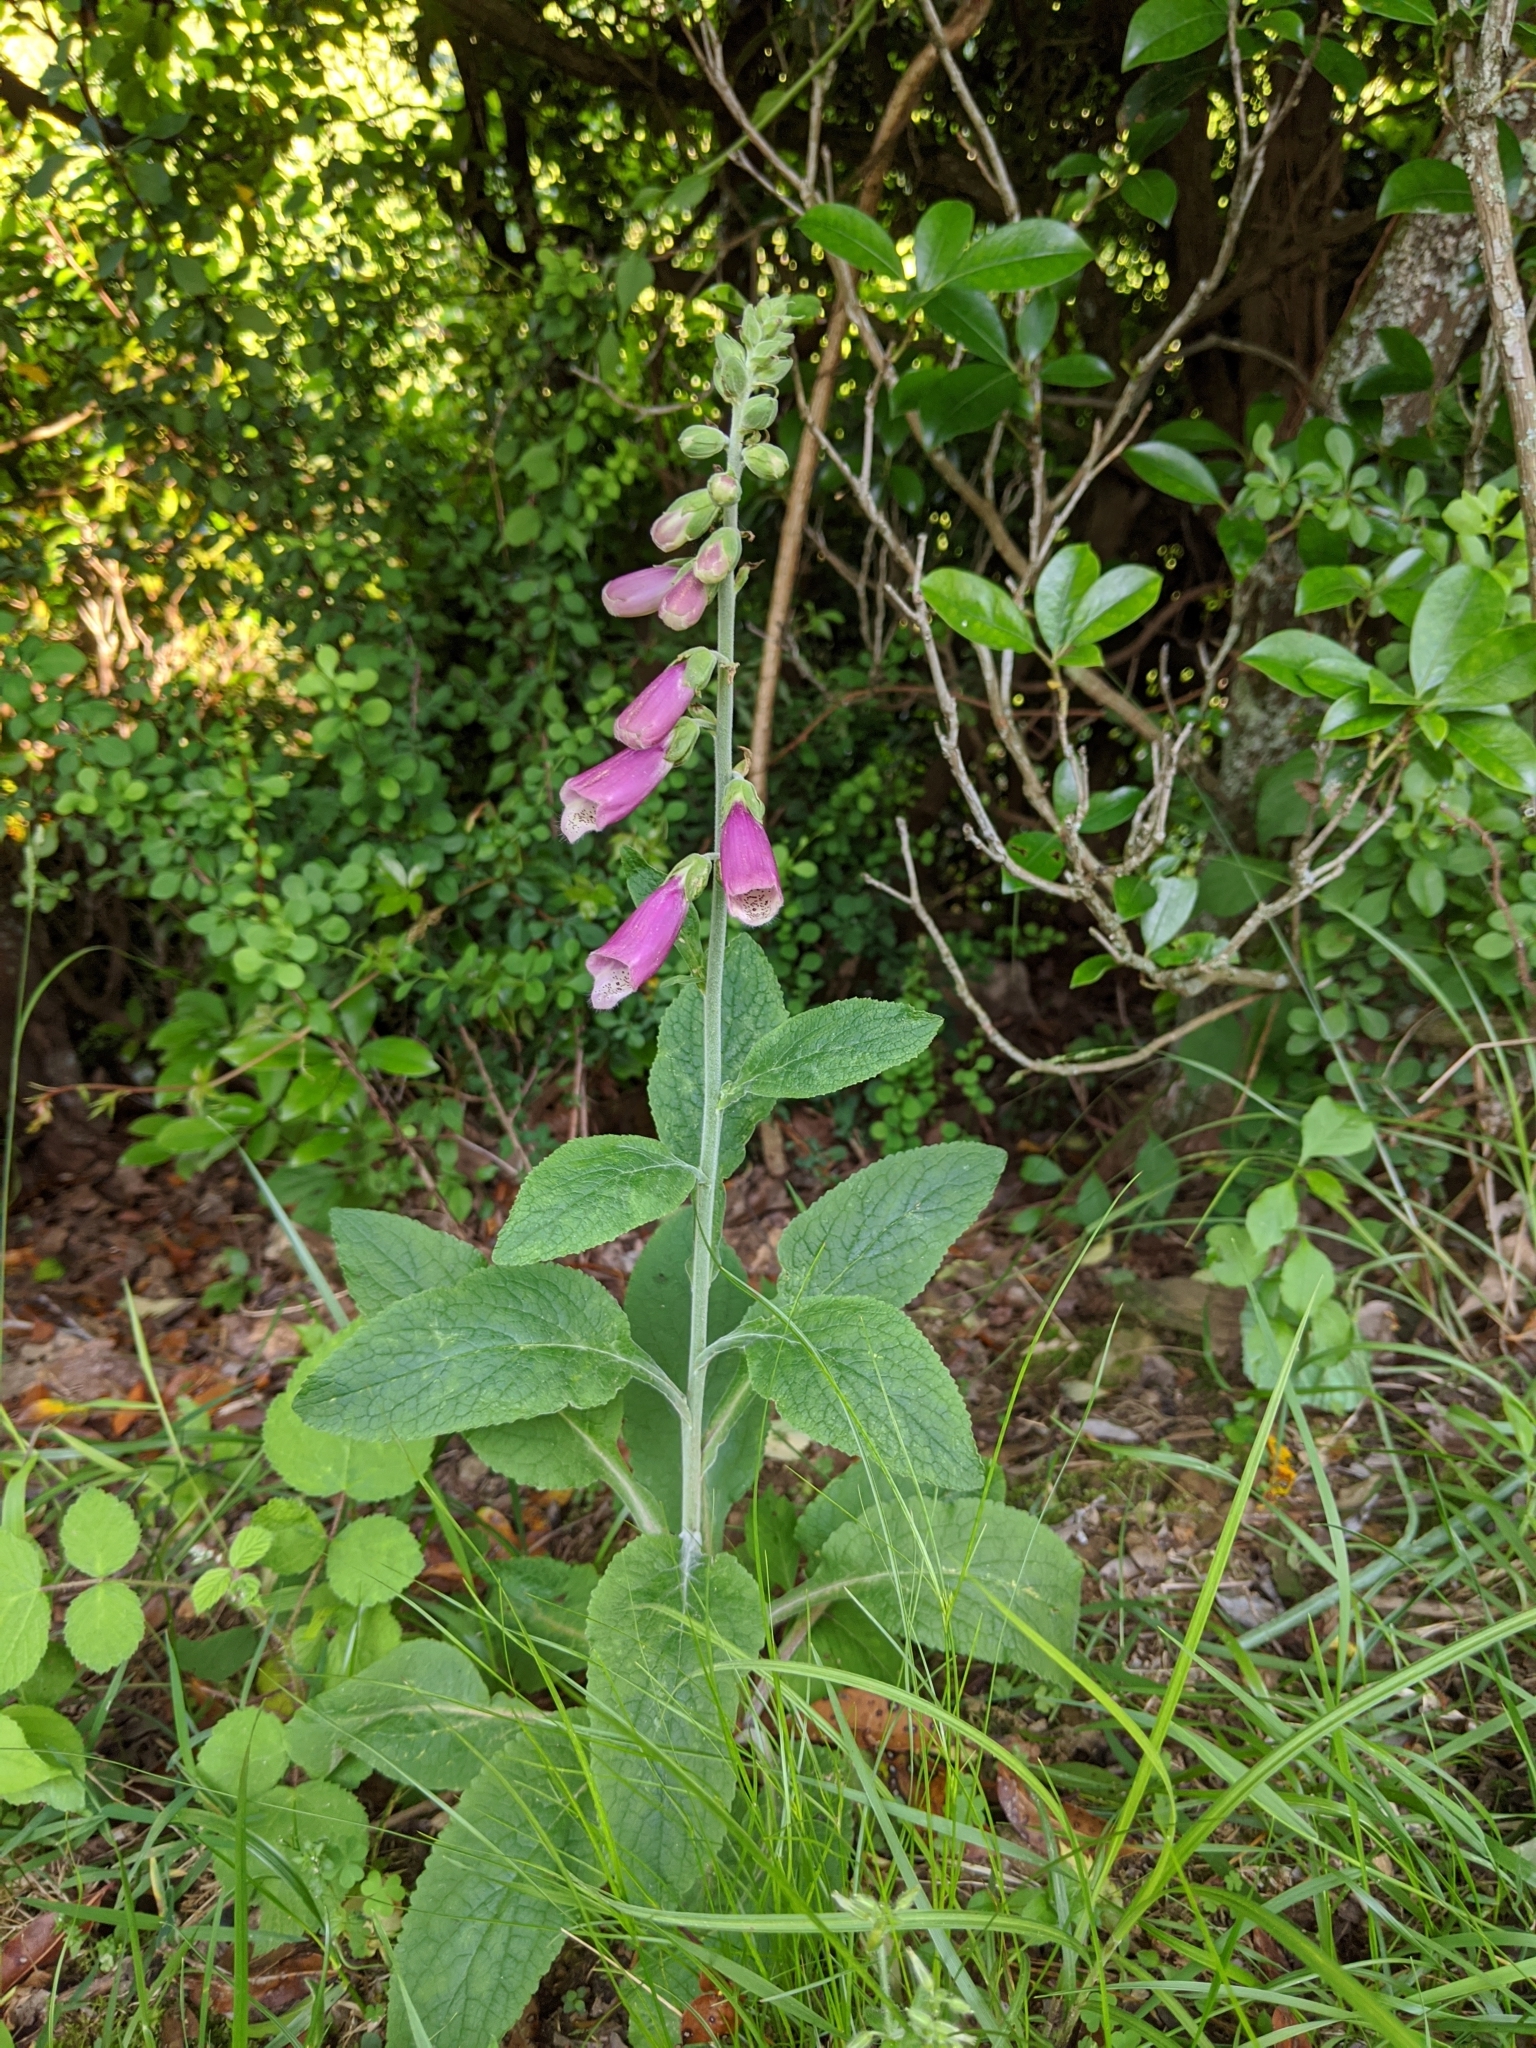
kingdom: Plantae
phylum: Tracheophyta
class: Magnoliopsida
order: Lamiales
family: Plantaginaceae
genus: Digitalis
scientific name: Digitalis purpurea
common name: Foxglove
